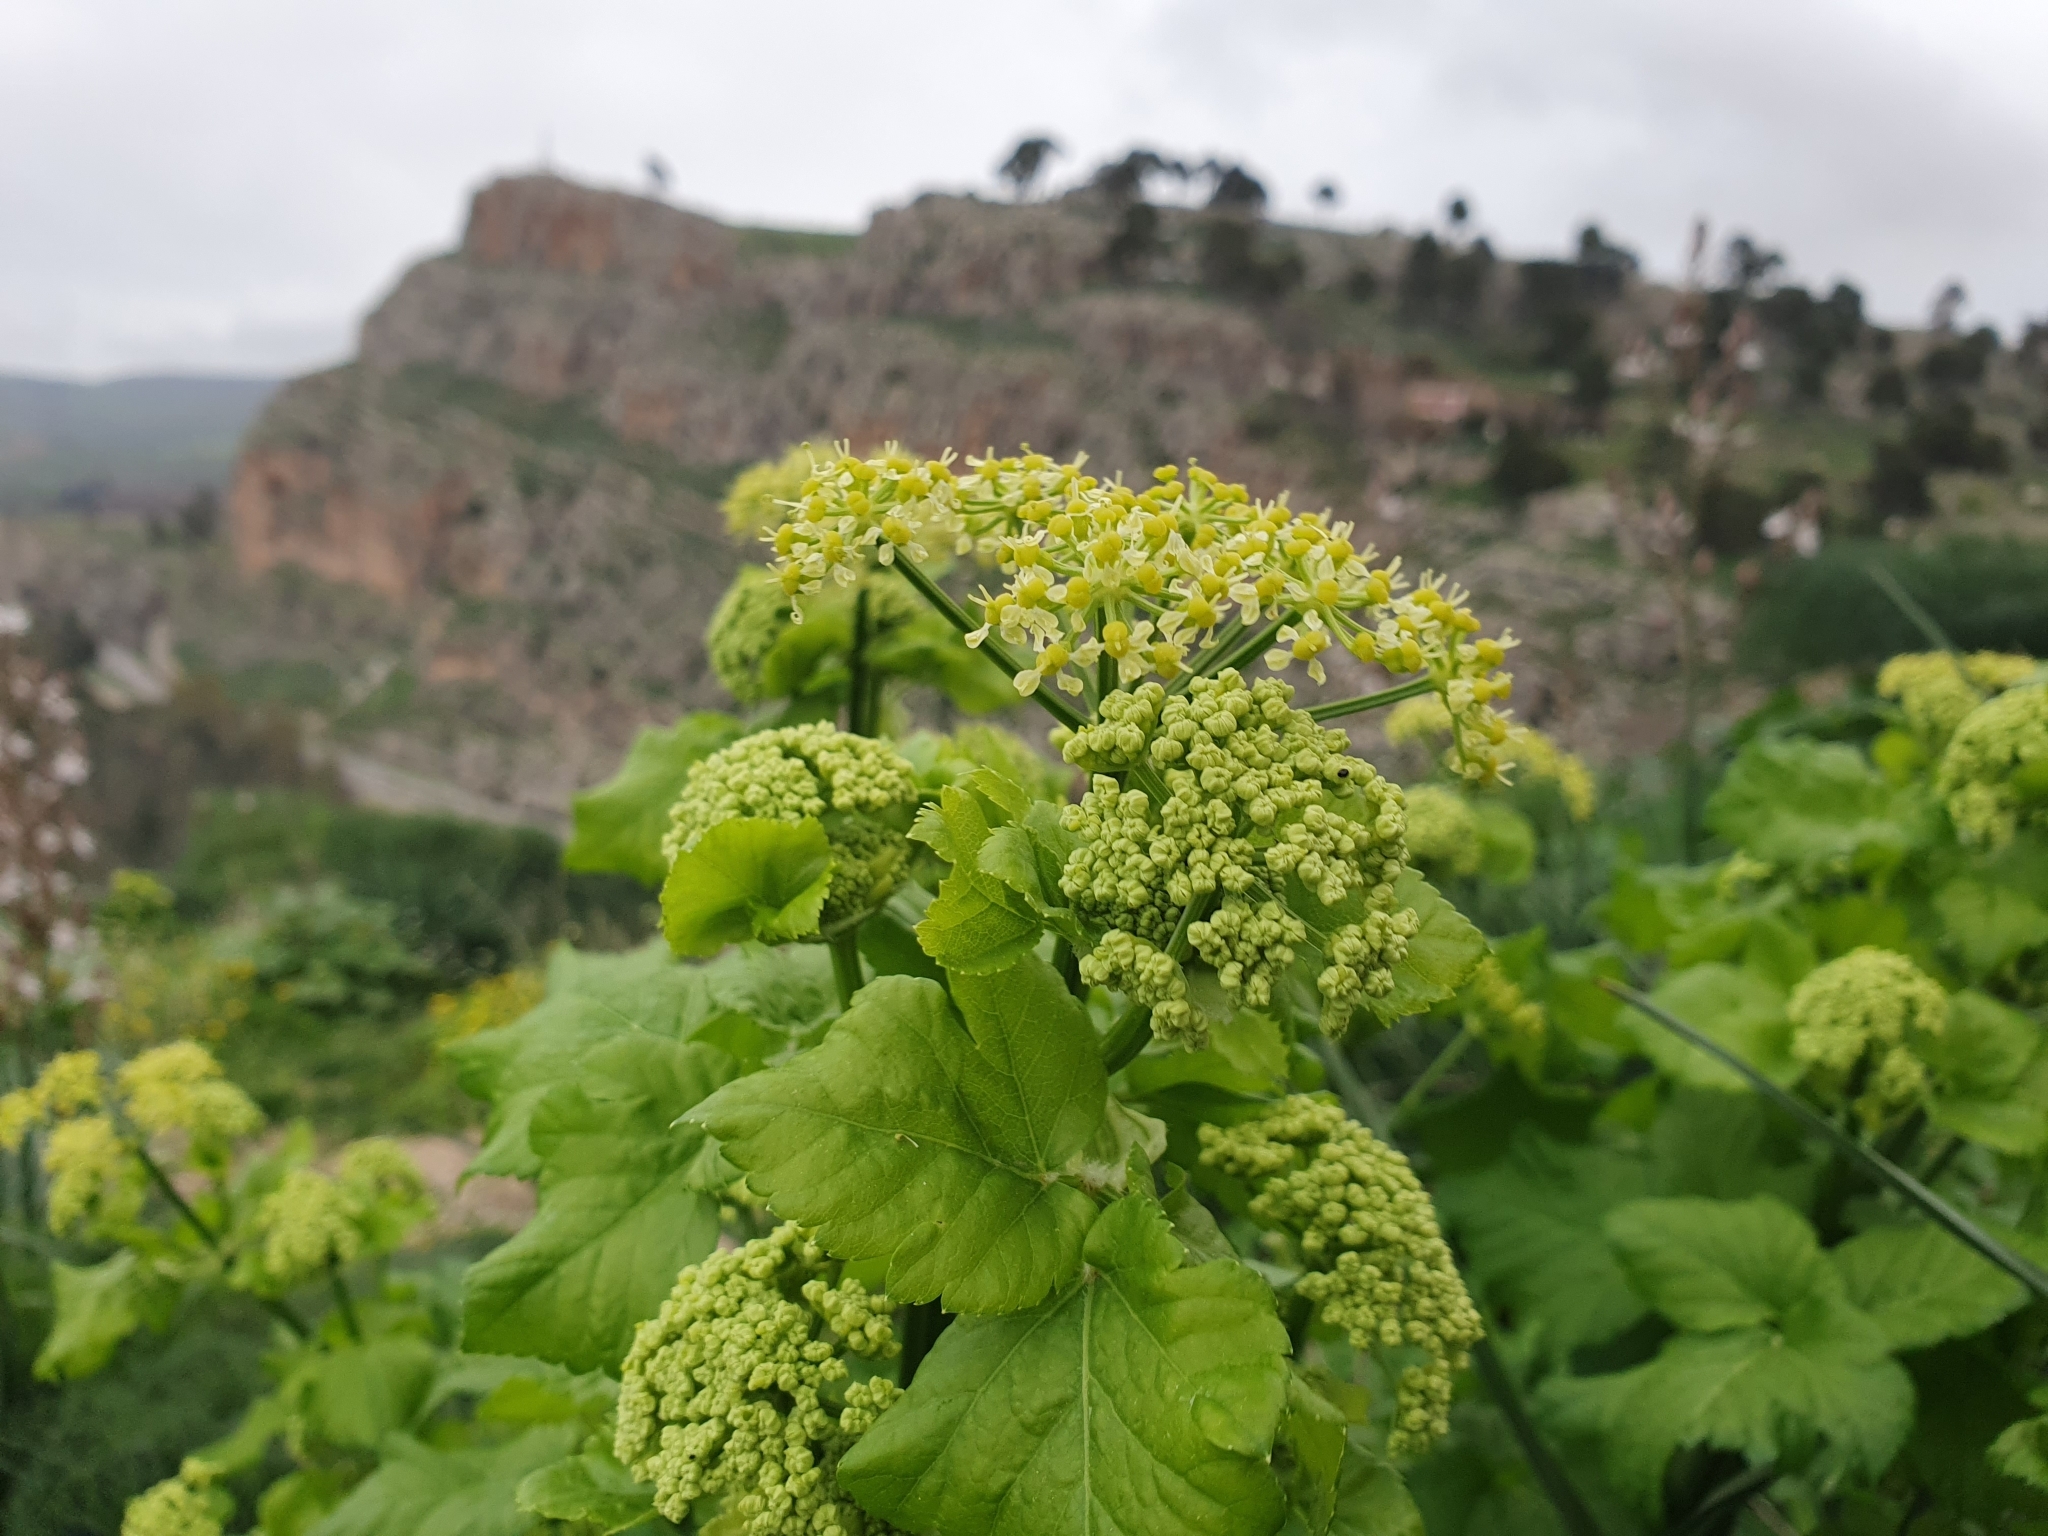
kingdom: Plantae
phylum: Tracheophyta
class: Magnoliopsida
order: Apiales
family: Apiaceae
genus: Smyrnium
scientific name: Smyrnium olusatrum
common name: Alexanders
